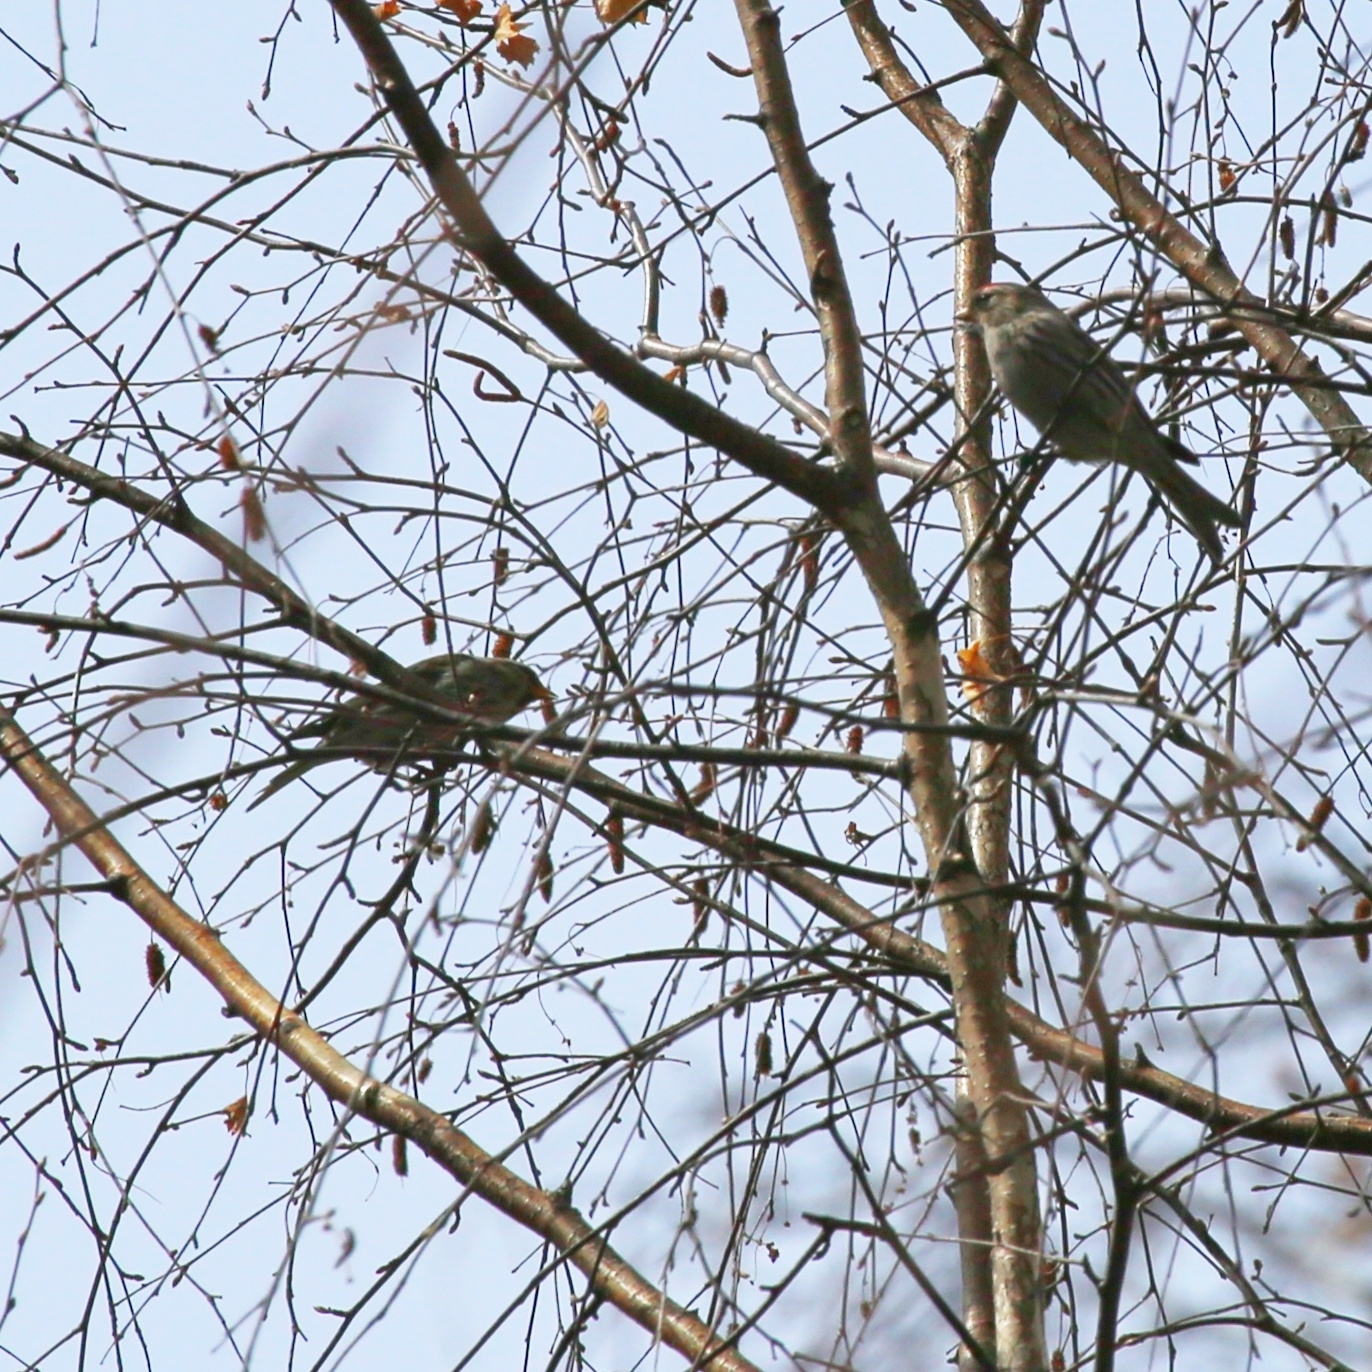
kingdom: Animalia
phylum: Chordata
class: Aves
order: Passeriformes
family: Fringillidae
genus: Acanthis
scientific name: Acanthis flammea
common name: Common redpoll
